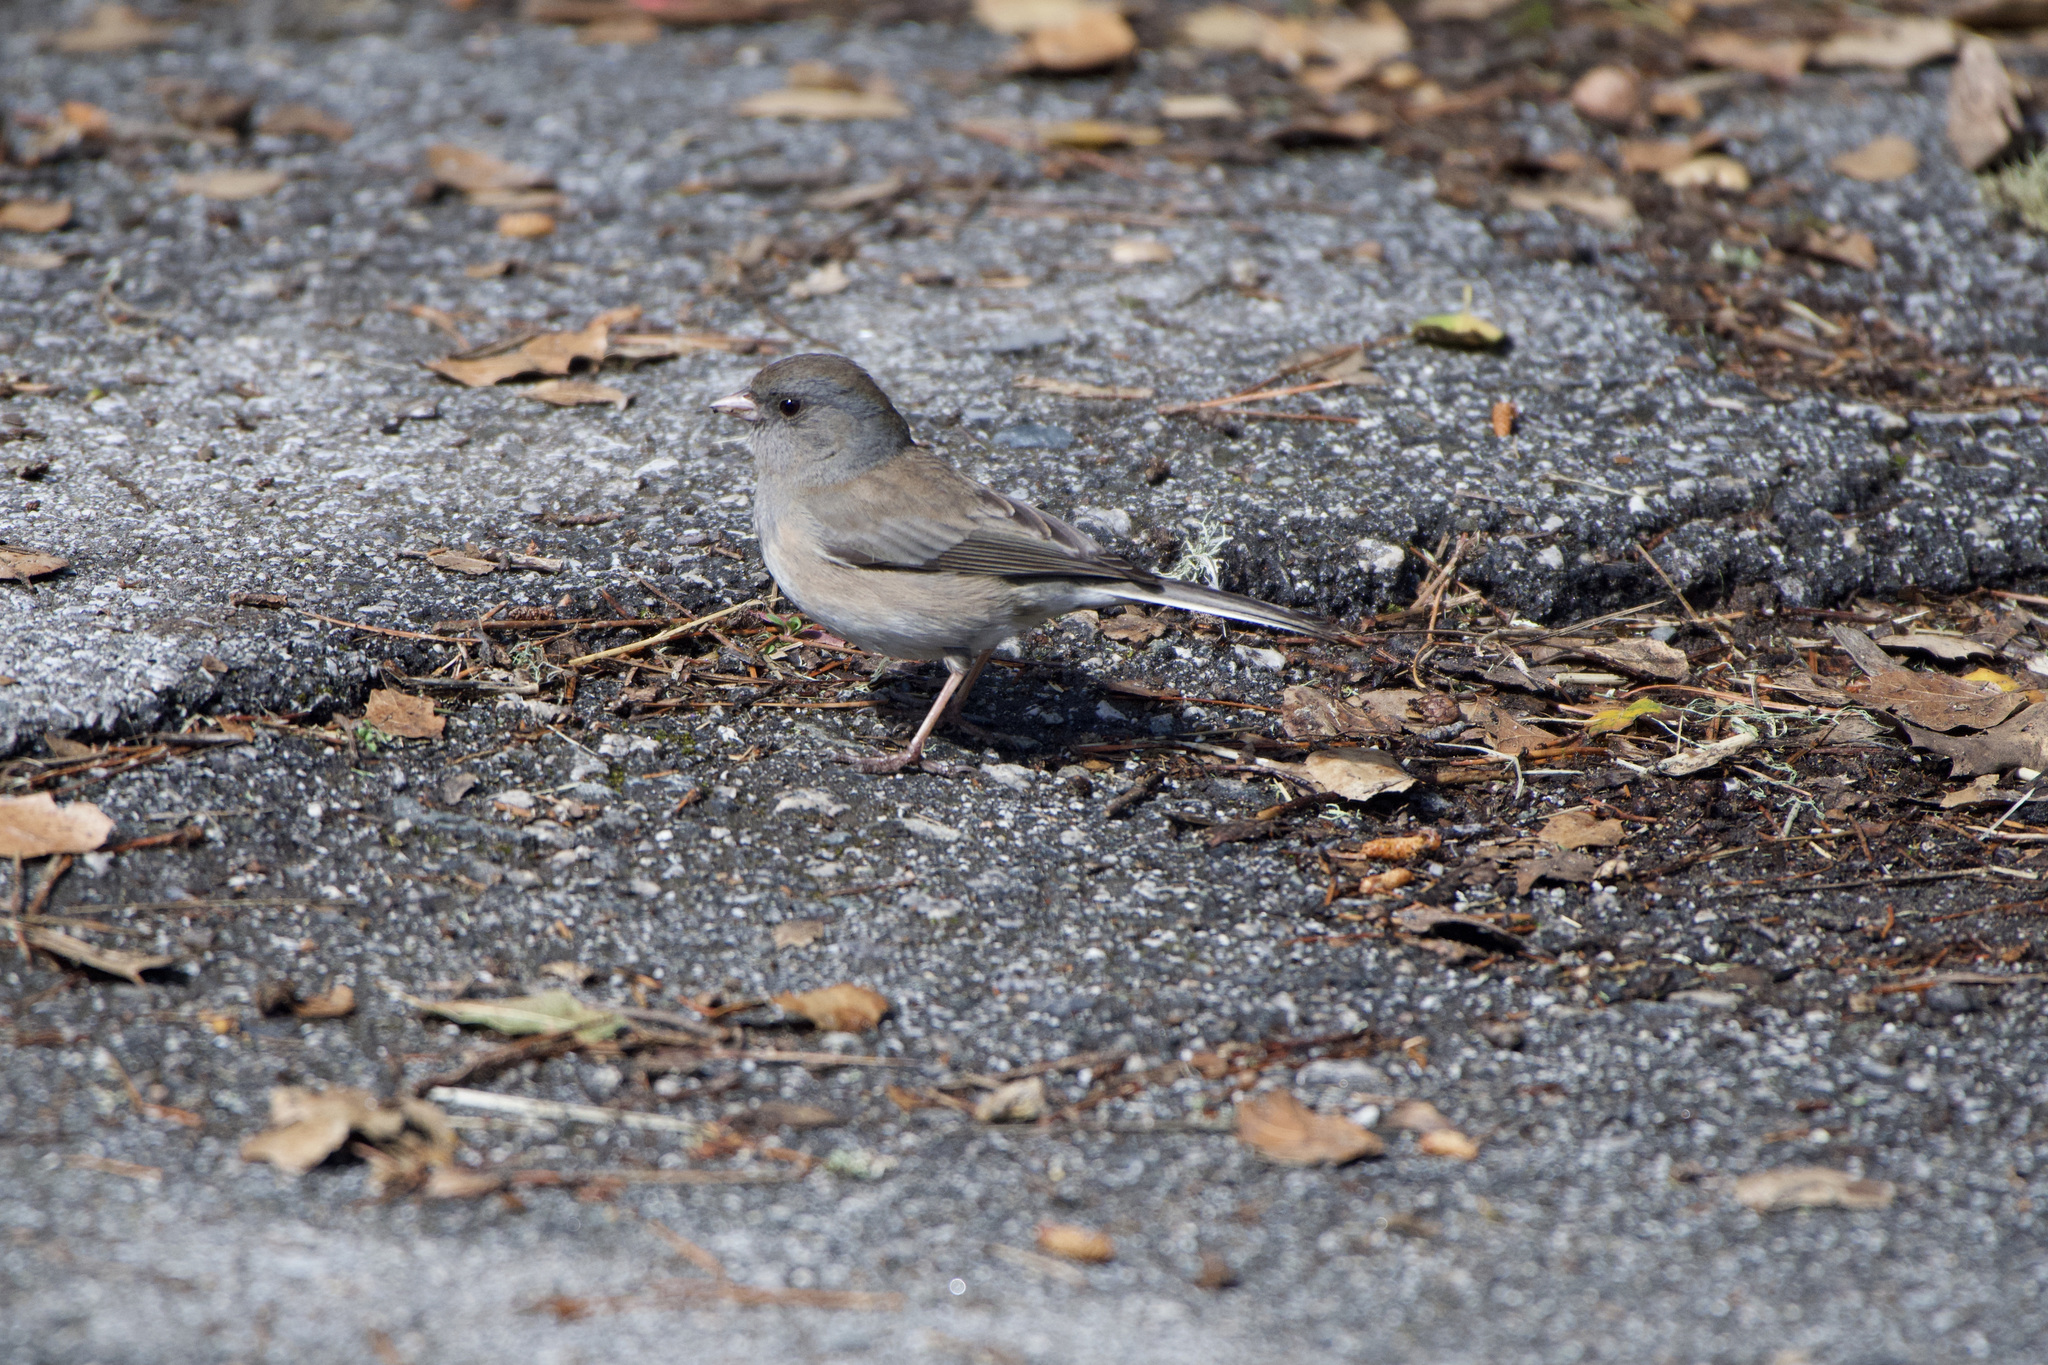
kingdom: Animalia
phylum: Chordata
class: Aves
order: Passeriformes
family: Passerellidae
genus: Junco
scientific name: Junco hyemalis
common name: Dark-eyed junco
